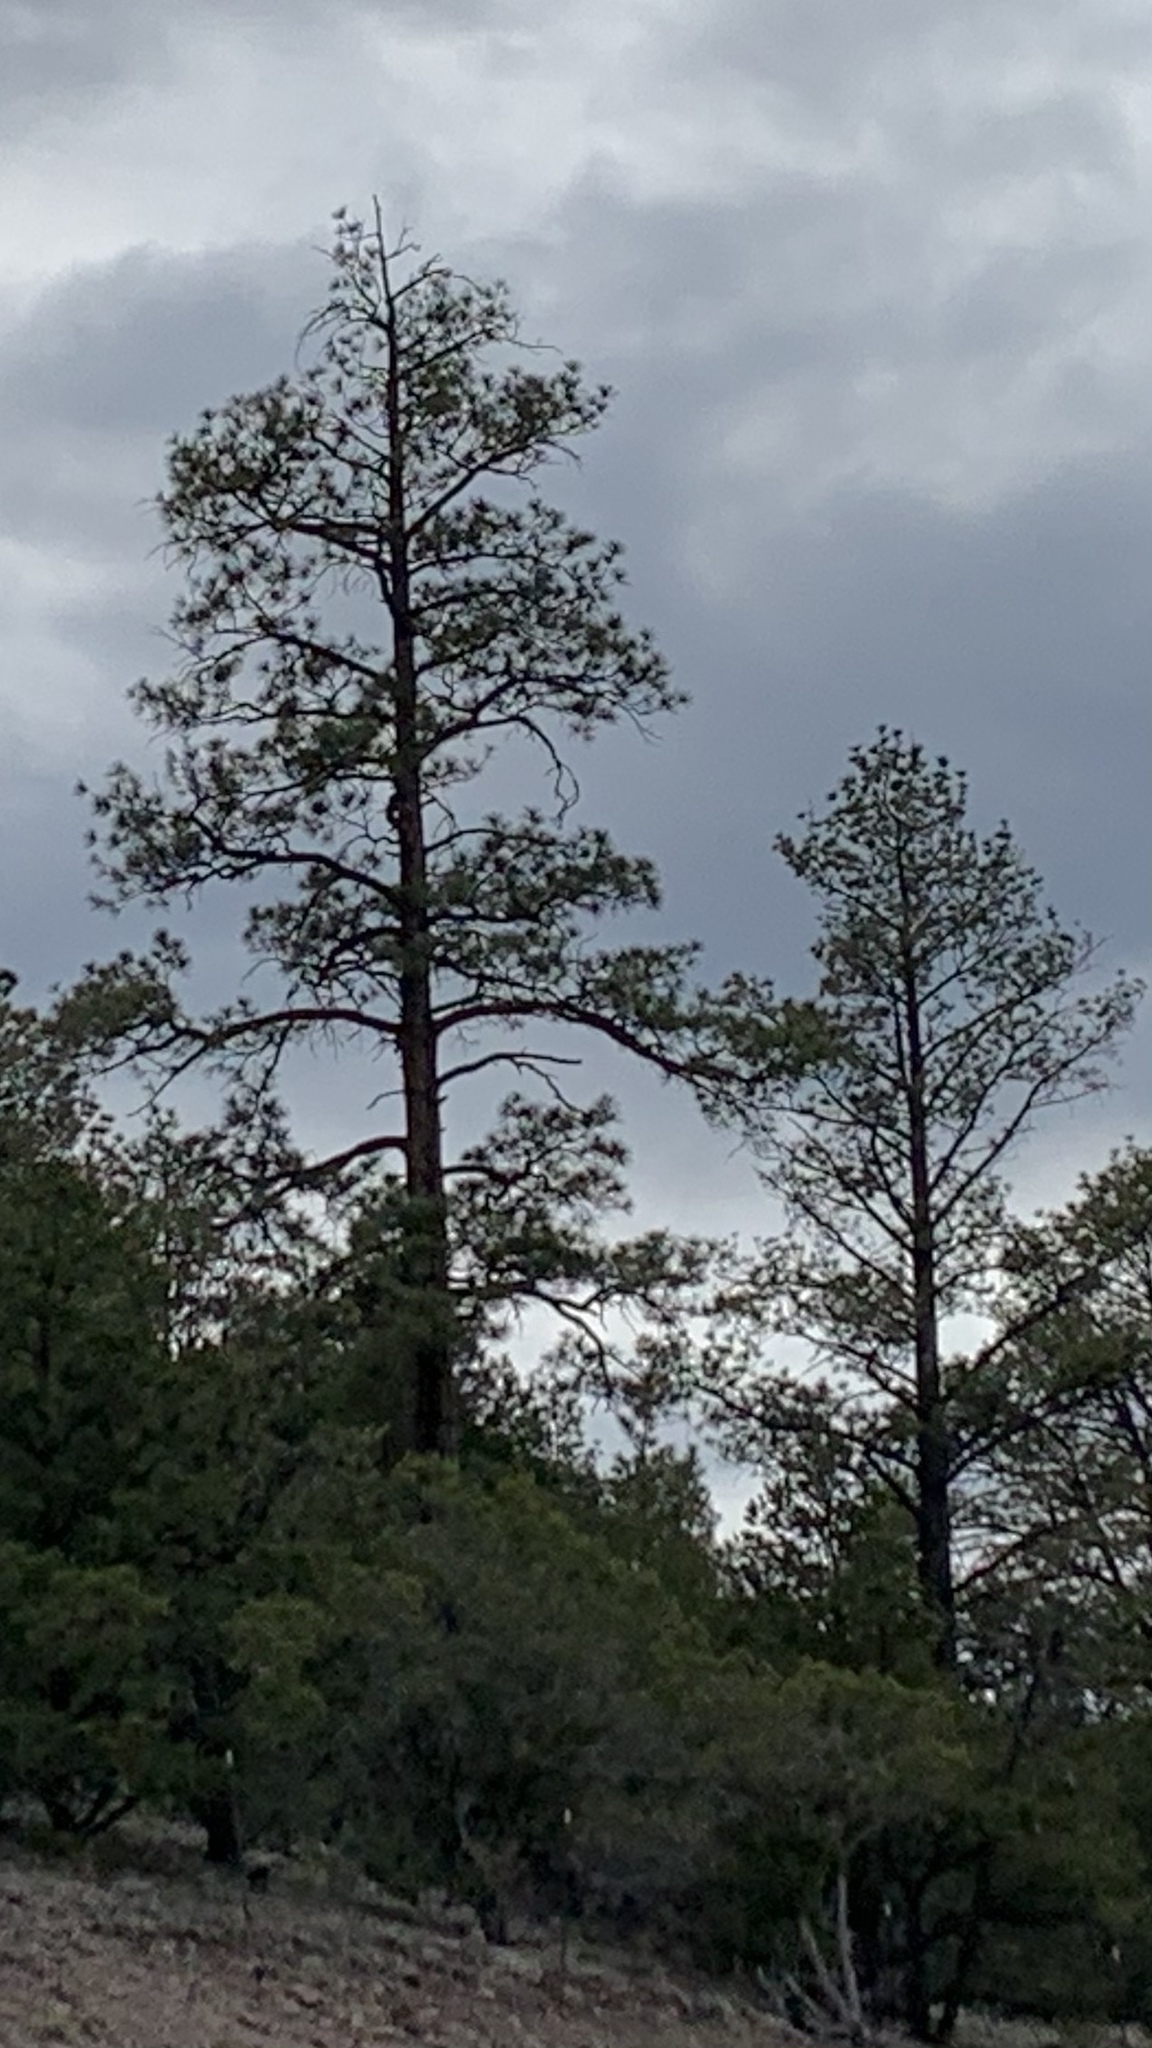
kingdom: Plantae
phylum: Tracheophyta
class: Pinopsida
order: Pinales
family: Pinaceae
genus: Pinus
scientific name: Pinus ponderosa
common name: Western yellow-pine
